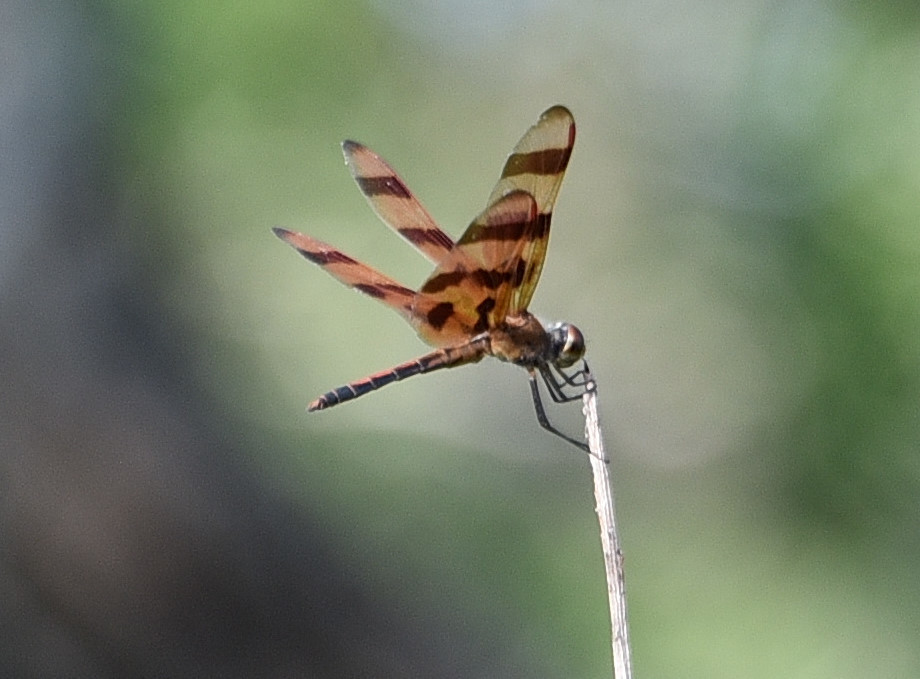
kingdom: Animalia
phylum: Arthropoda
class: Insecta
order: Odonata
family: Libellulidae
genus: Celithemis
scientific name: Celithemis eponina
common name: Halloween pennant
